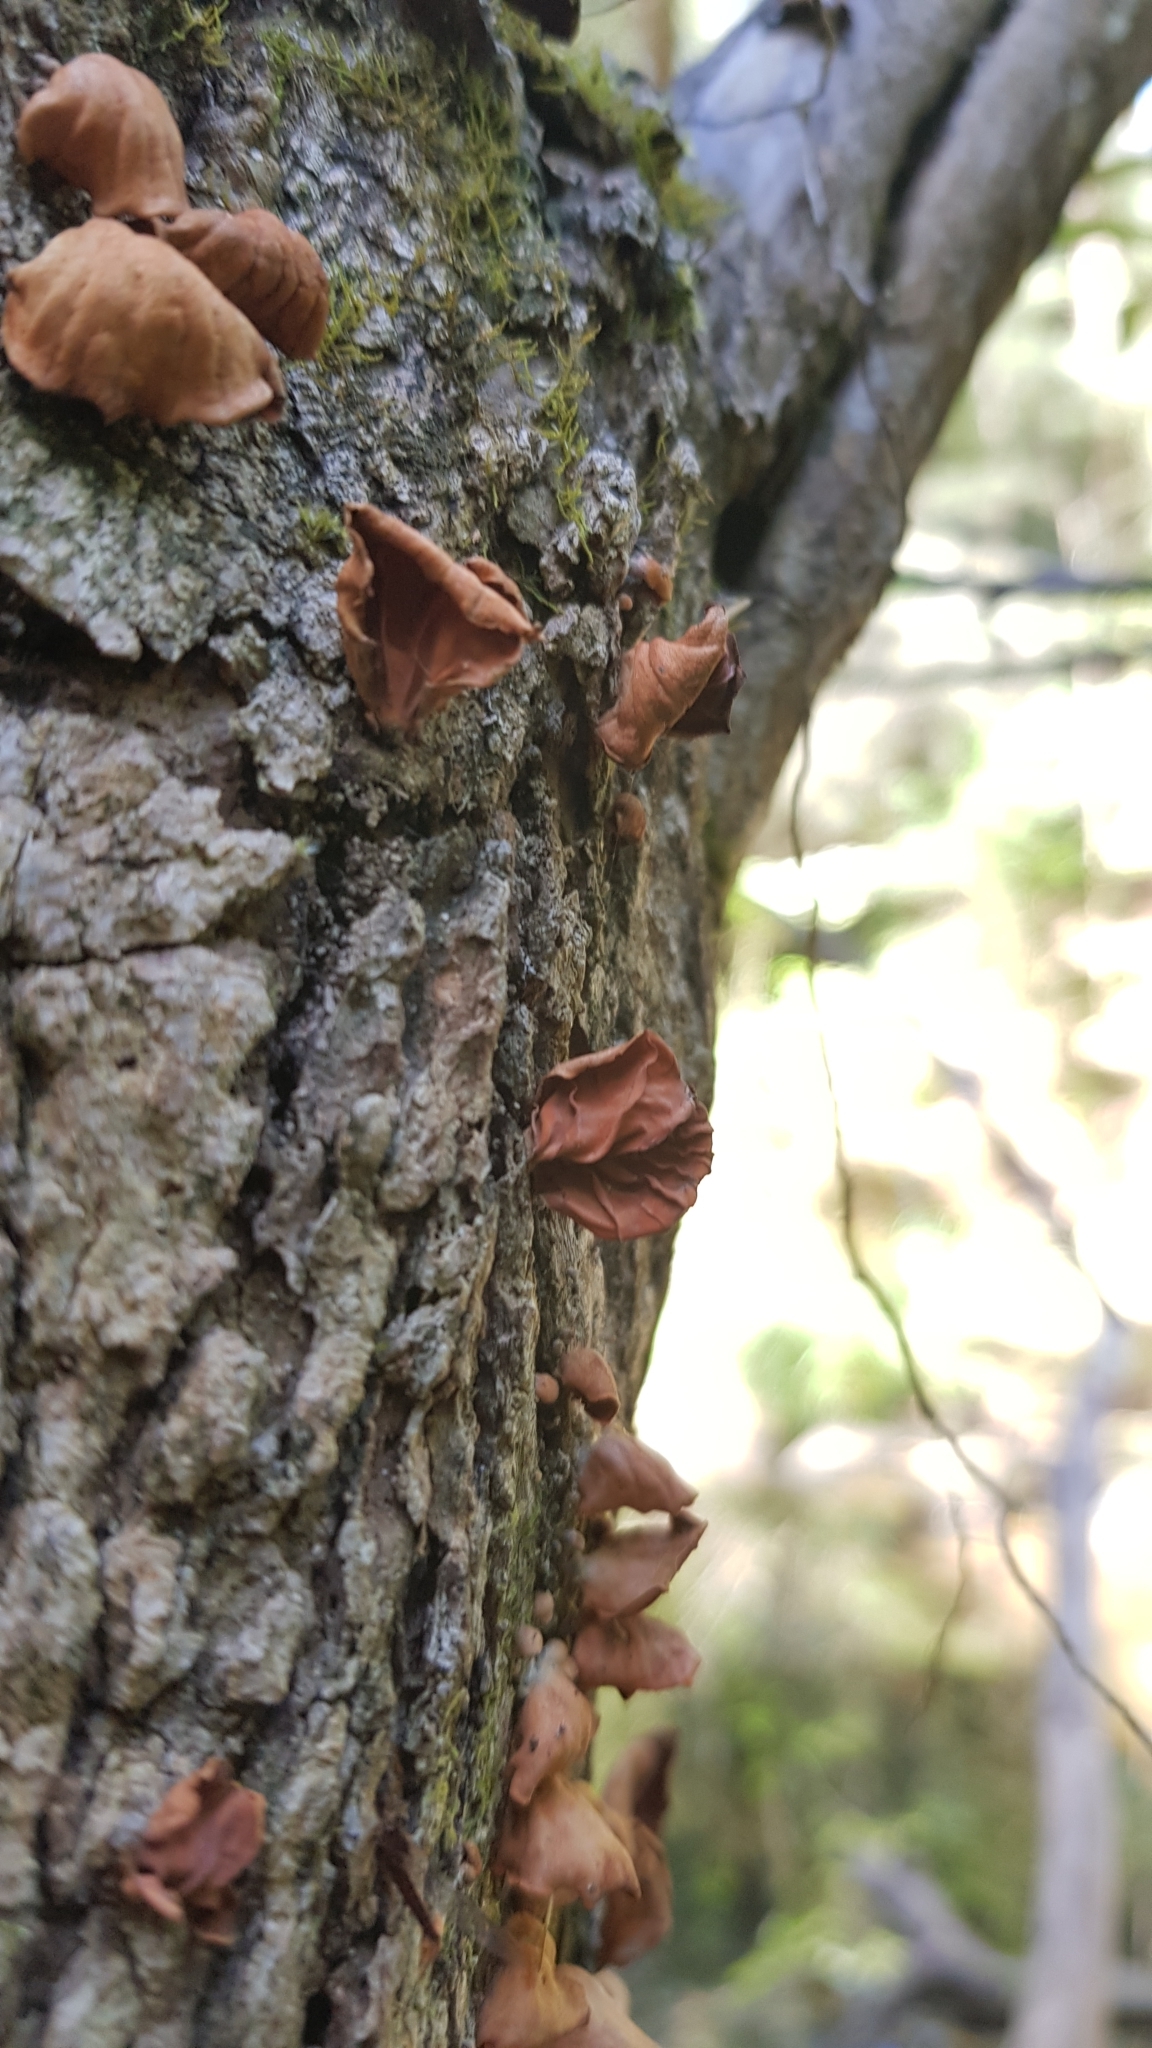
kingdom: Fungi
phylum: Basidiomycota
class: Agaricomycetes
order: Agaricales
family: Omphalotaceae
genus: Anthracophyllum
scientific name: Anthracophyllum archeri
